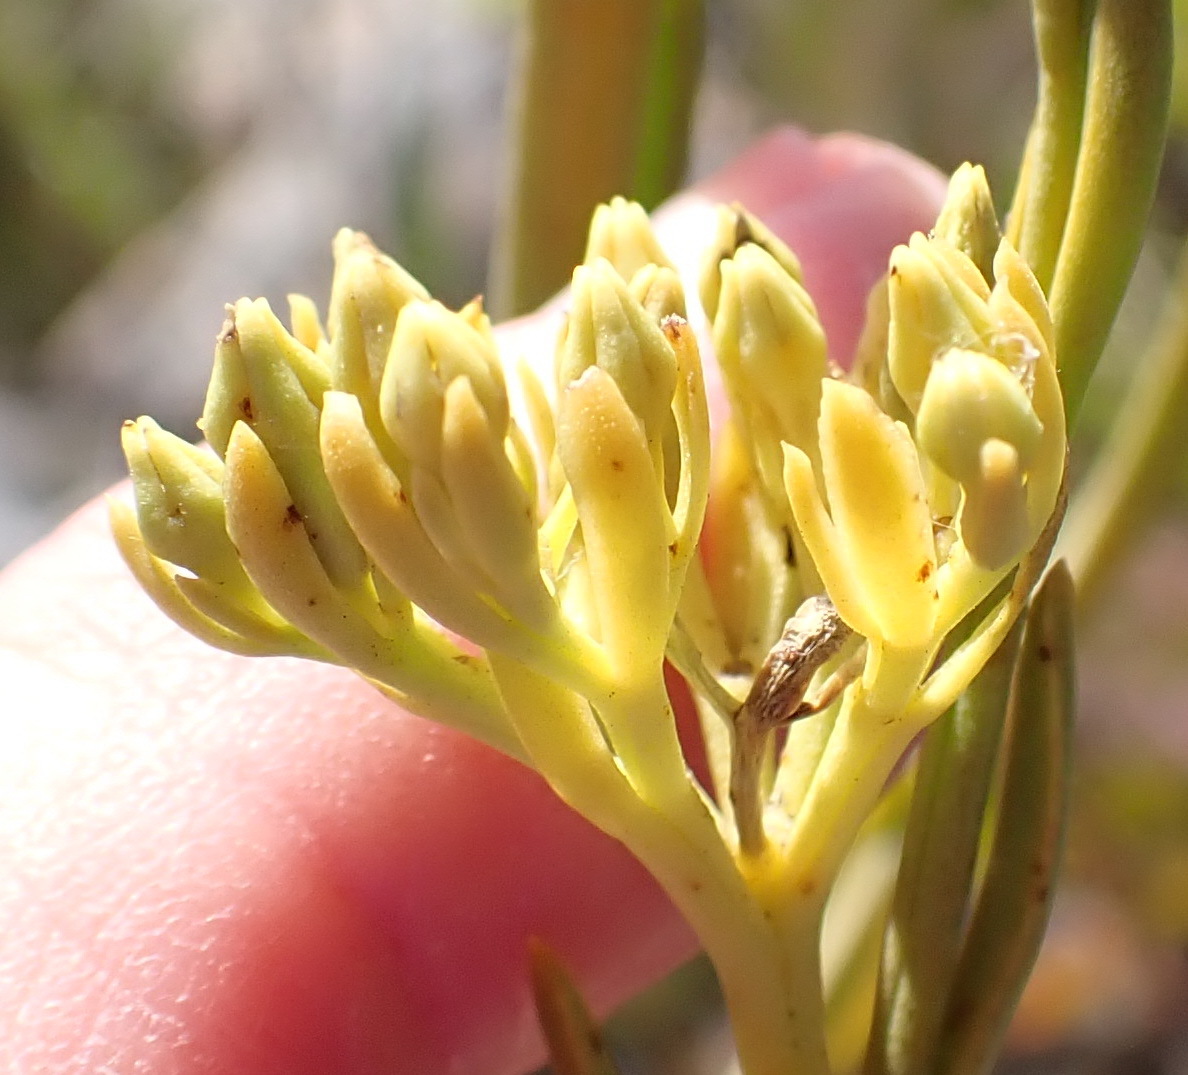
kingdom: Plantae
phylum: Tracheophyta
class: Magnoliopsida
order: Santalales
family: Thesiaceae
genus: Thesium
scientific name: Thesium umbelliferum
